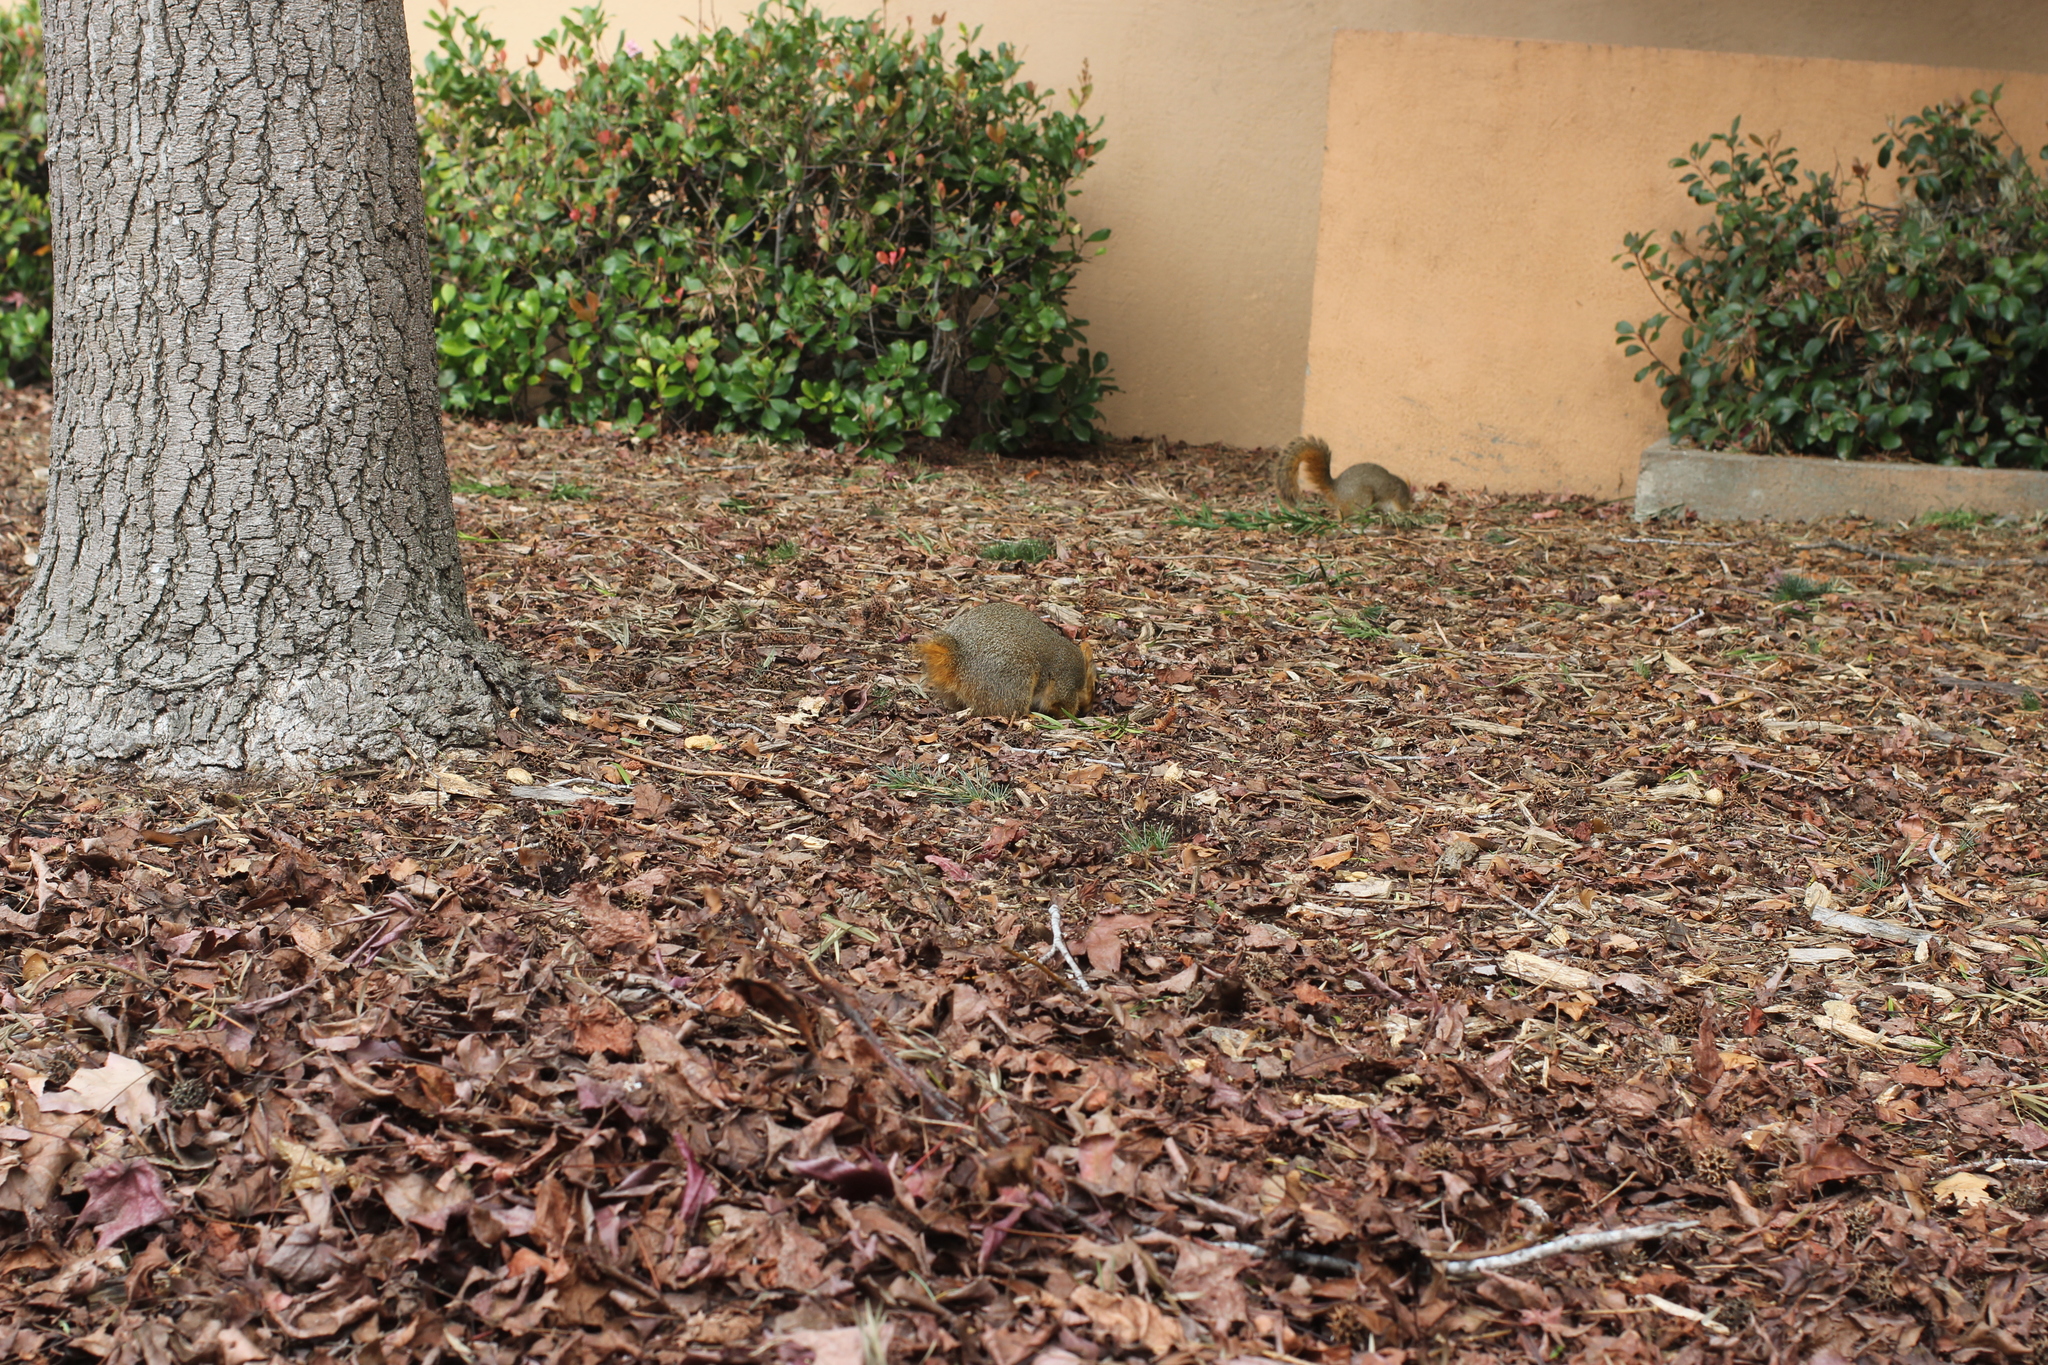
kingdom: Animalia
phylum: Chordata
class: Mammalia
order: Rodentia
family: Sciuridae
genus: Sciurus
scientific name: Sciurus niger
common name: Fox squirrel
